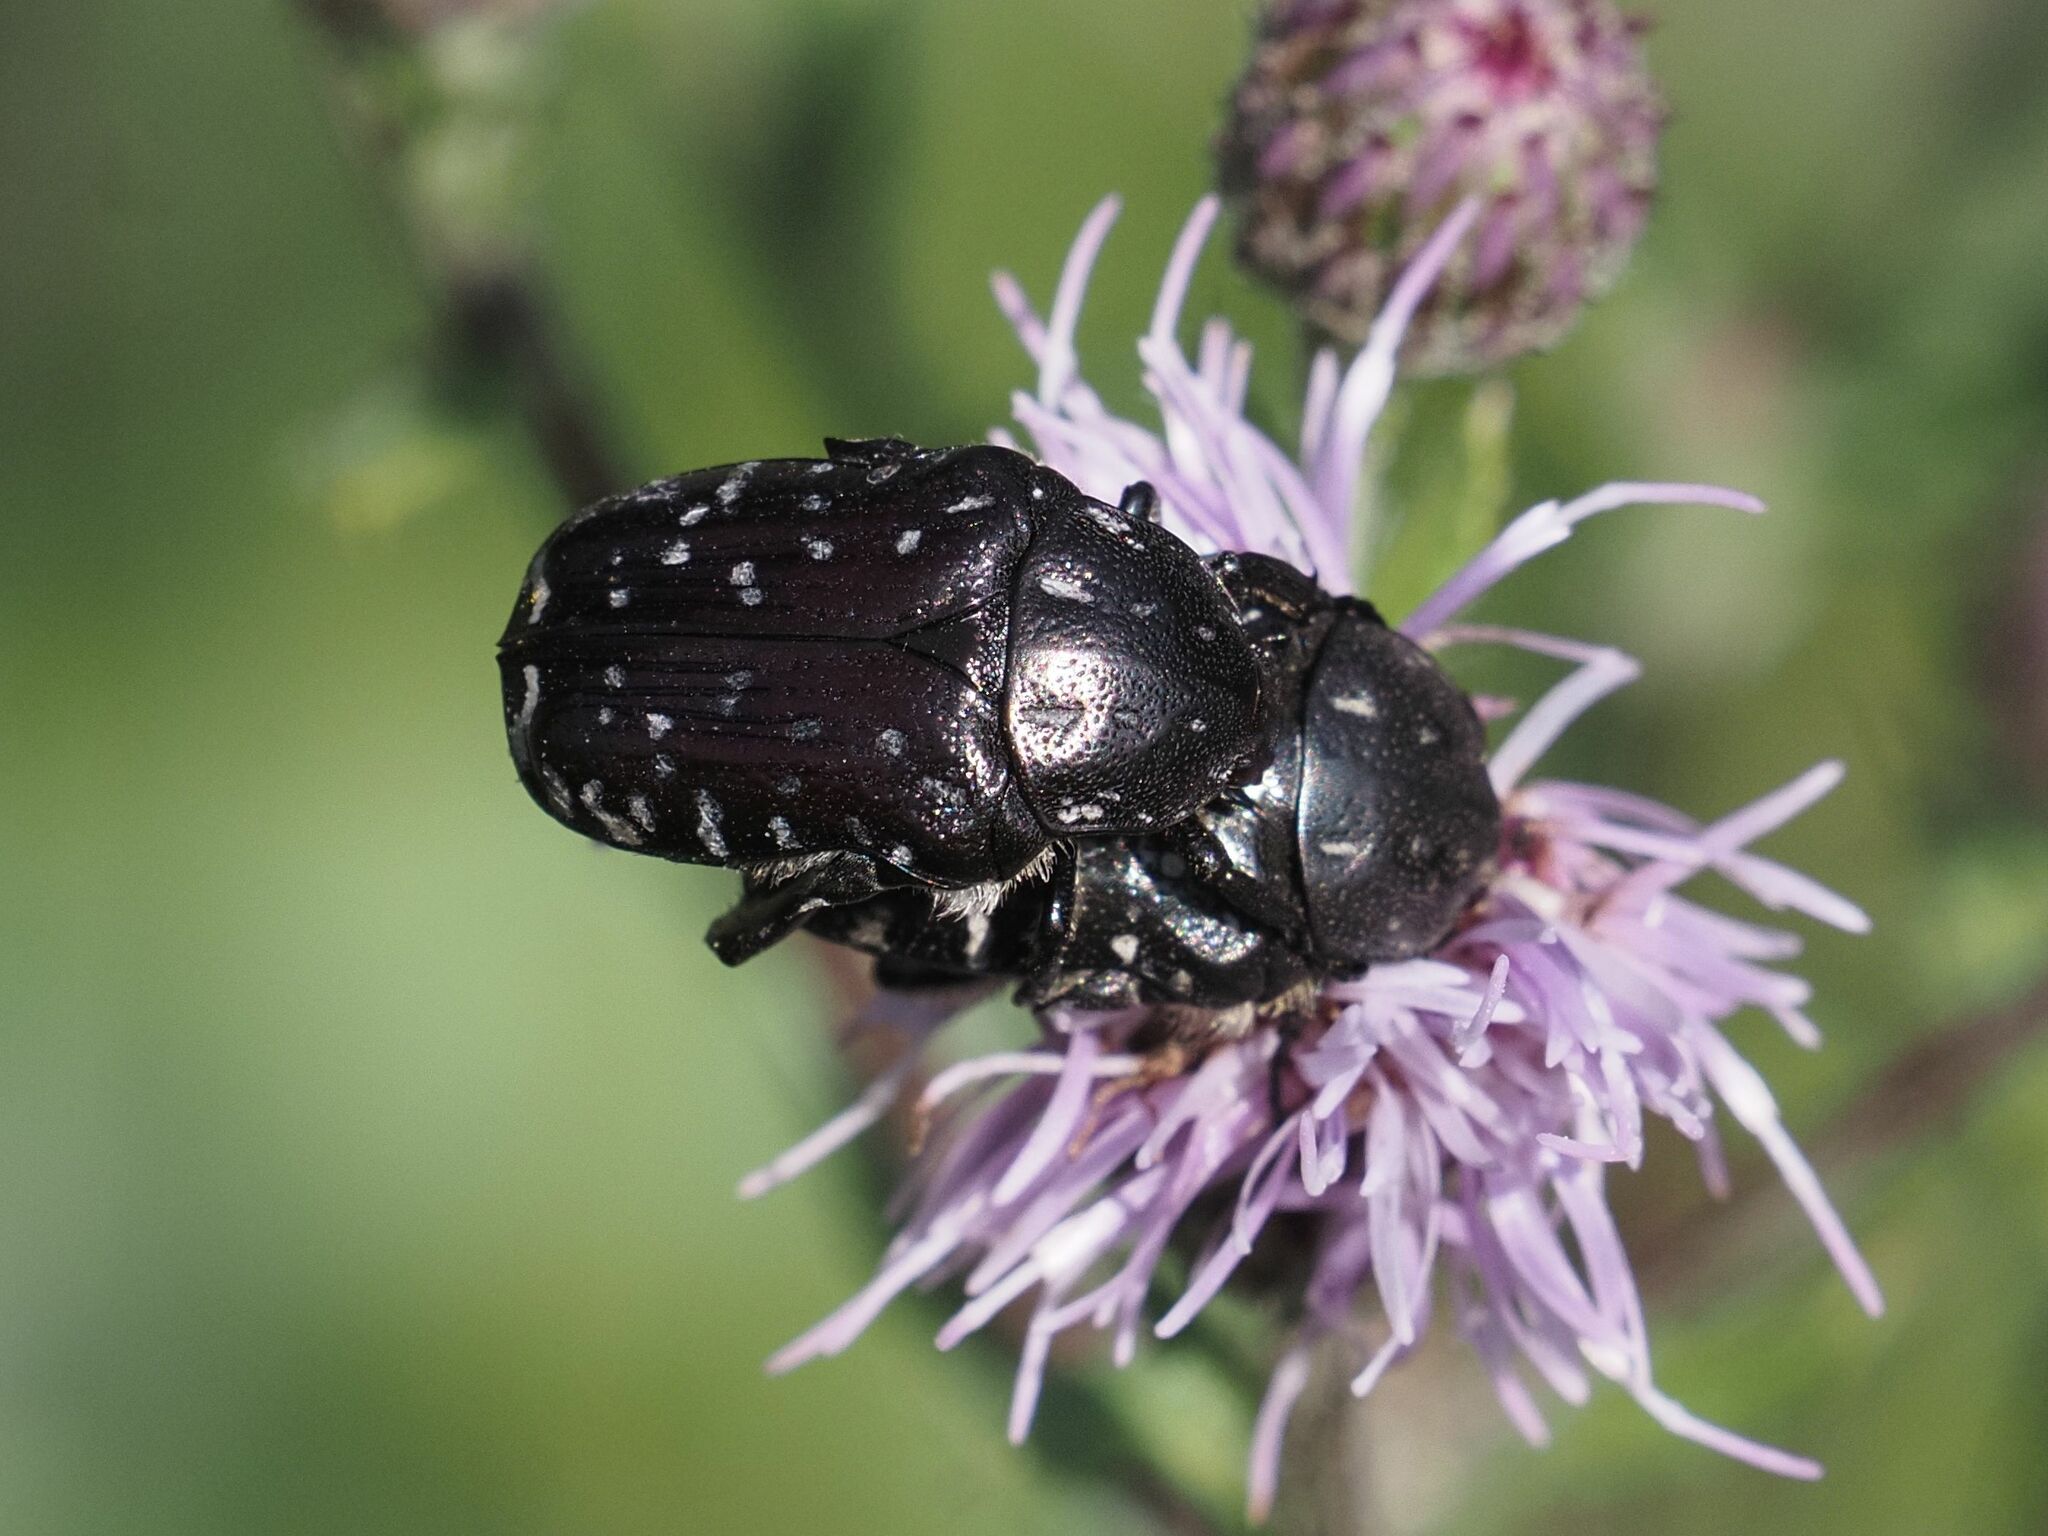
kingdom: Animalia
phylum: Arthropoda
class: Insecta
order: Coleoptera
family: Scarabaeidae
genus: Oxythyrea
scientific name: Oxythyrea funesta
